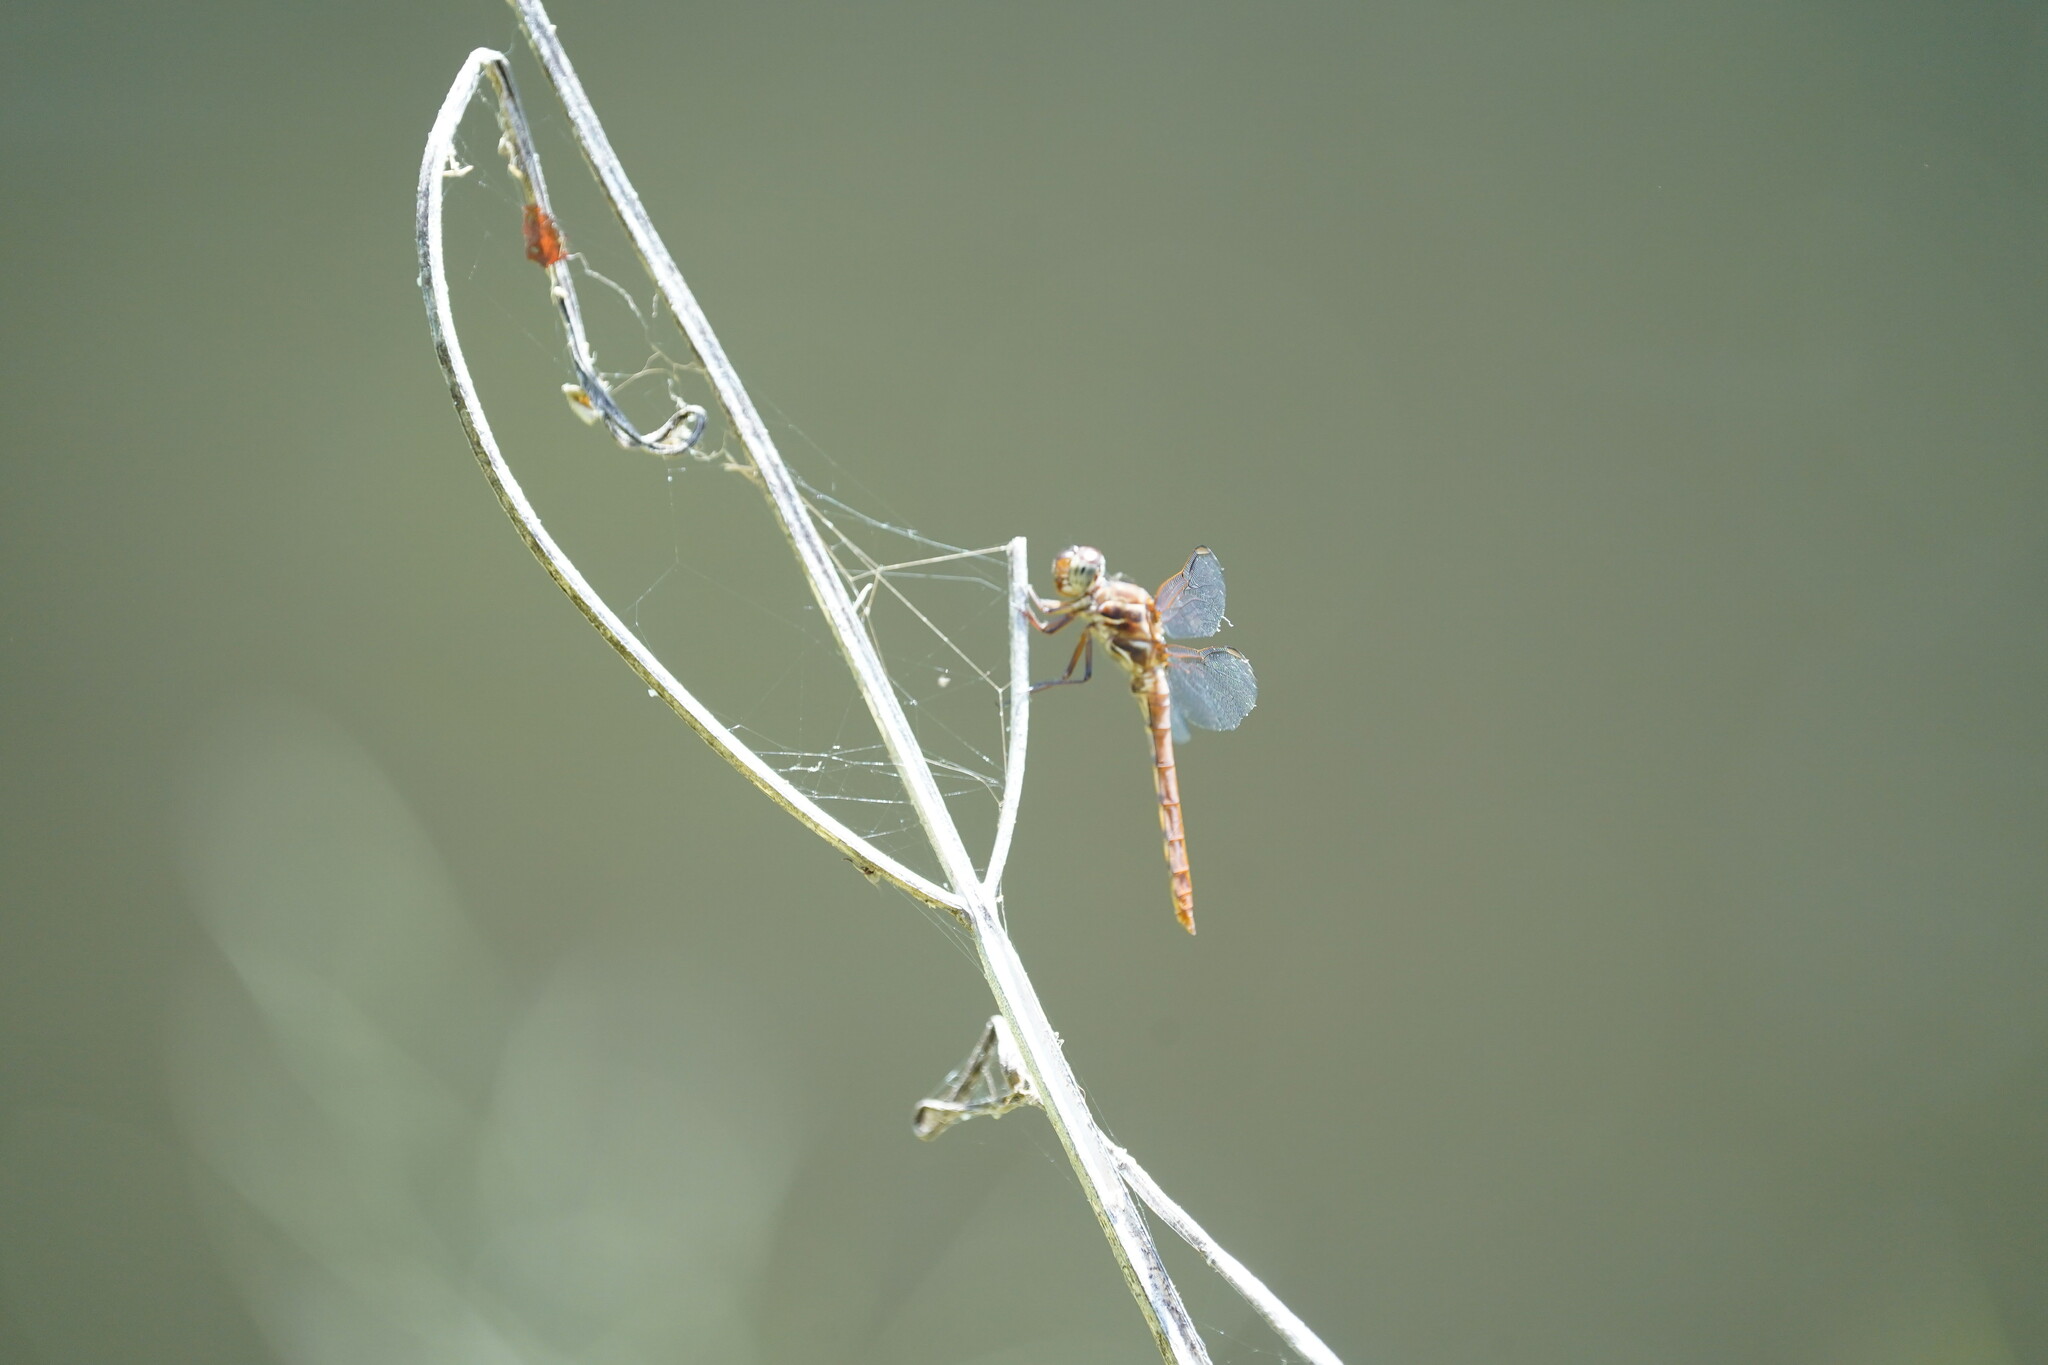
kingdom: Animalia
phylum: Arthropoda
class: Insecta
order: Odonata
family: Libellulidae
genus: Orthemis
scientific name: Orthemis ferruginea
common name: Roseate skimmer
